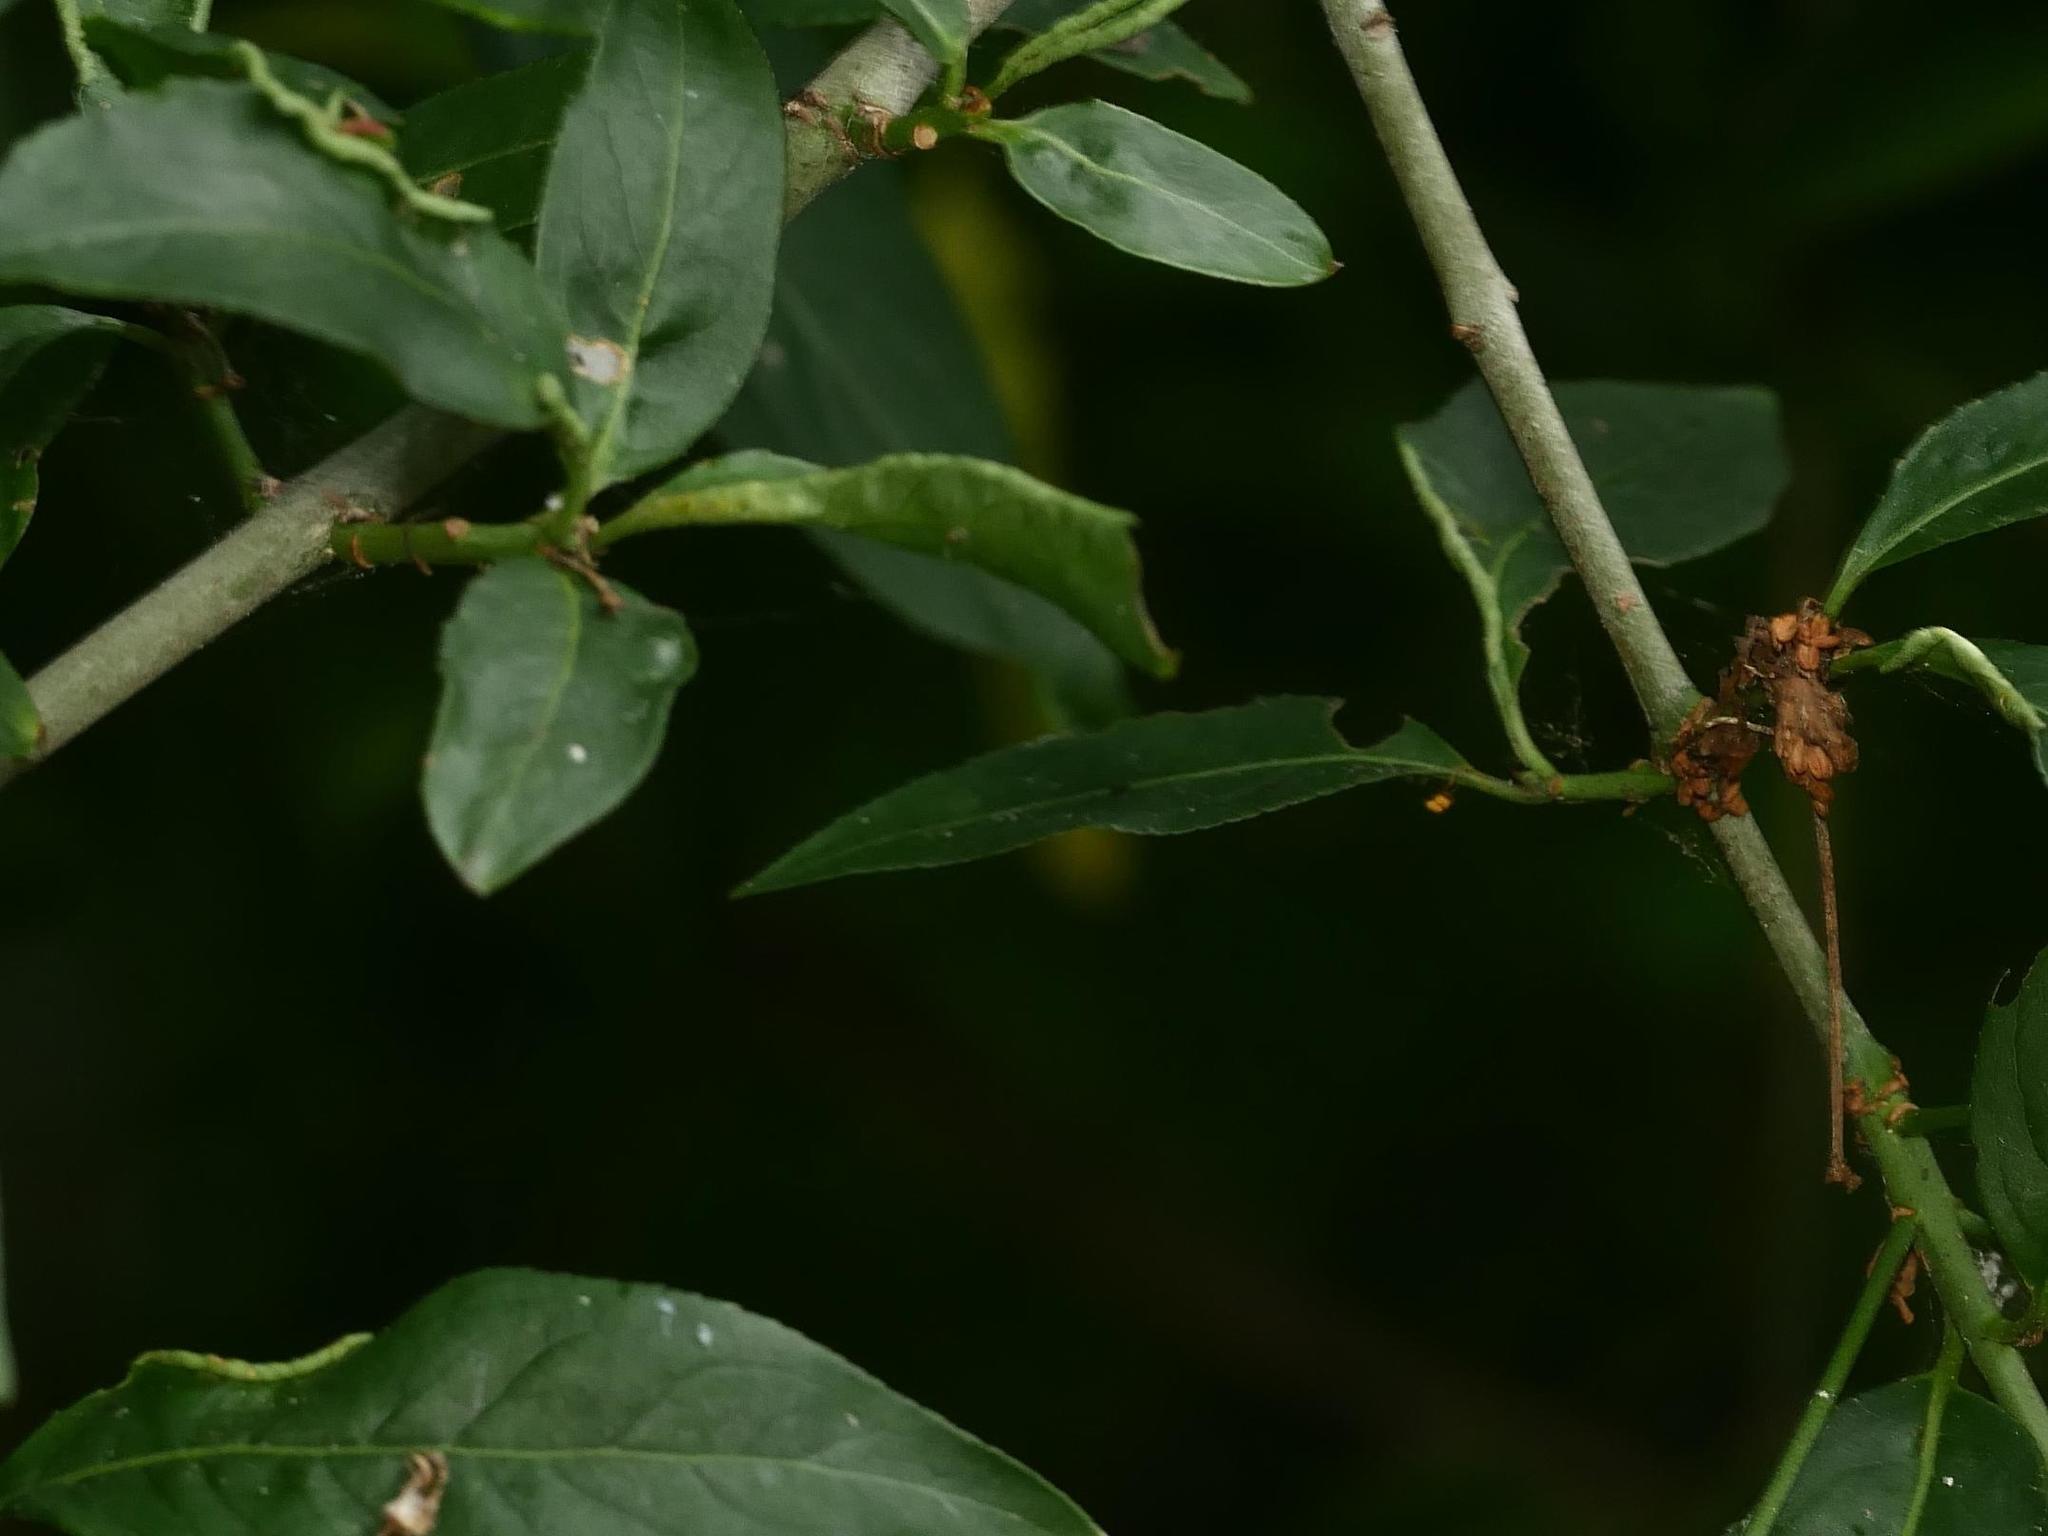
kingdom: Animalia
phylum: Arthropoda
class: Arachnida
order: Trombidiformes
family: Eriophyidae
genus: Stenacis
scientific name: Stenacis evonymi
